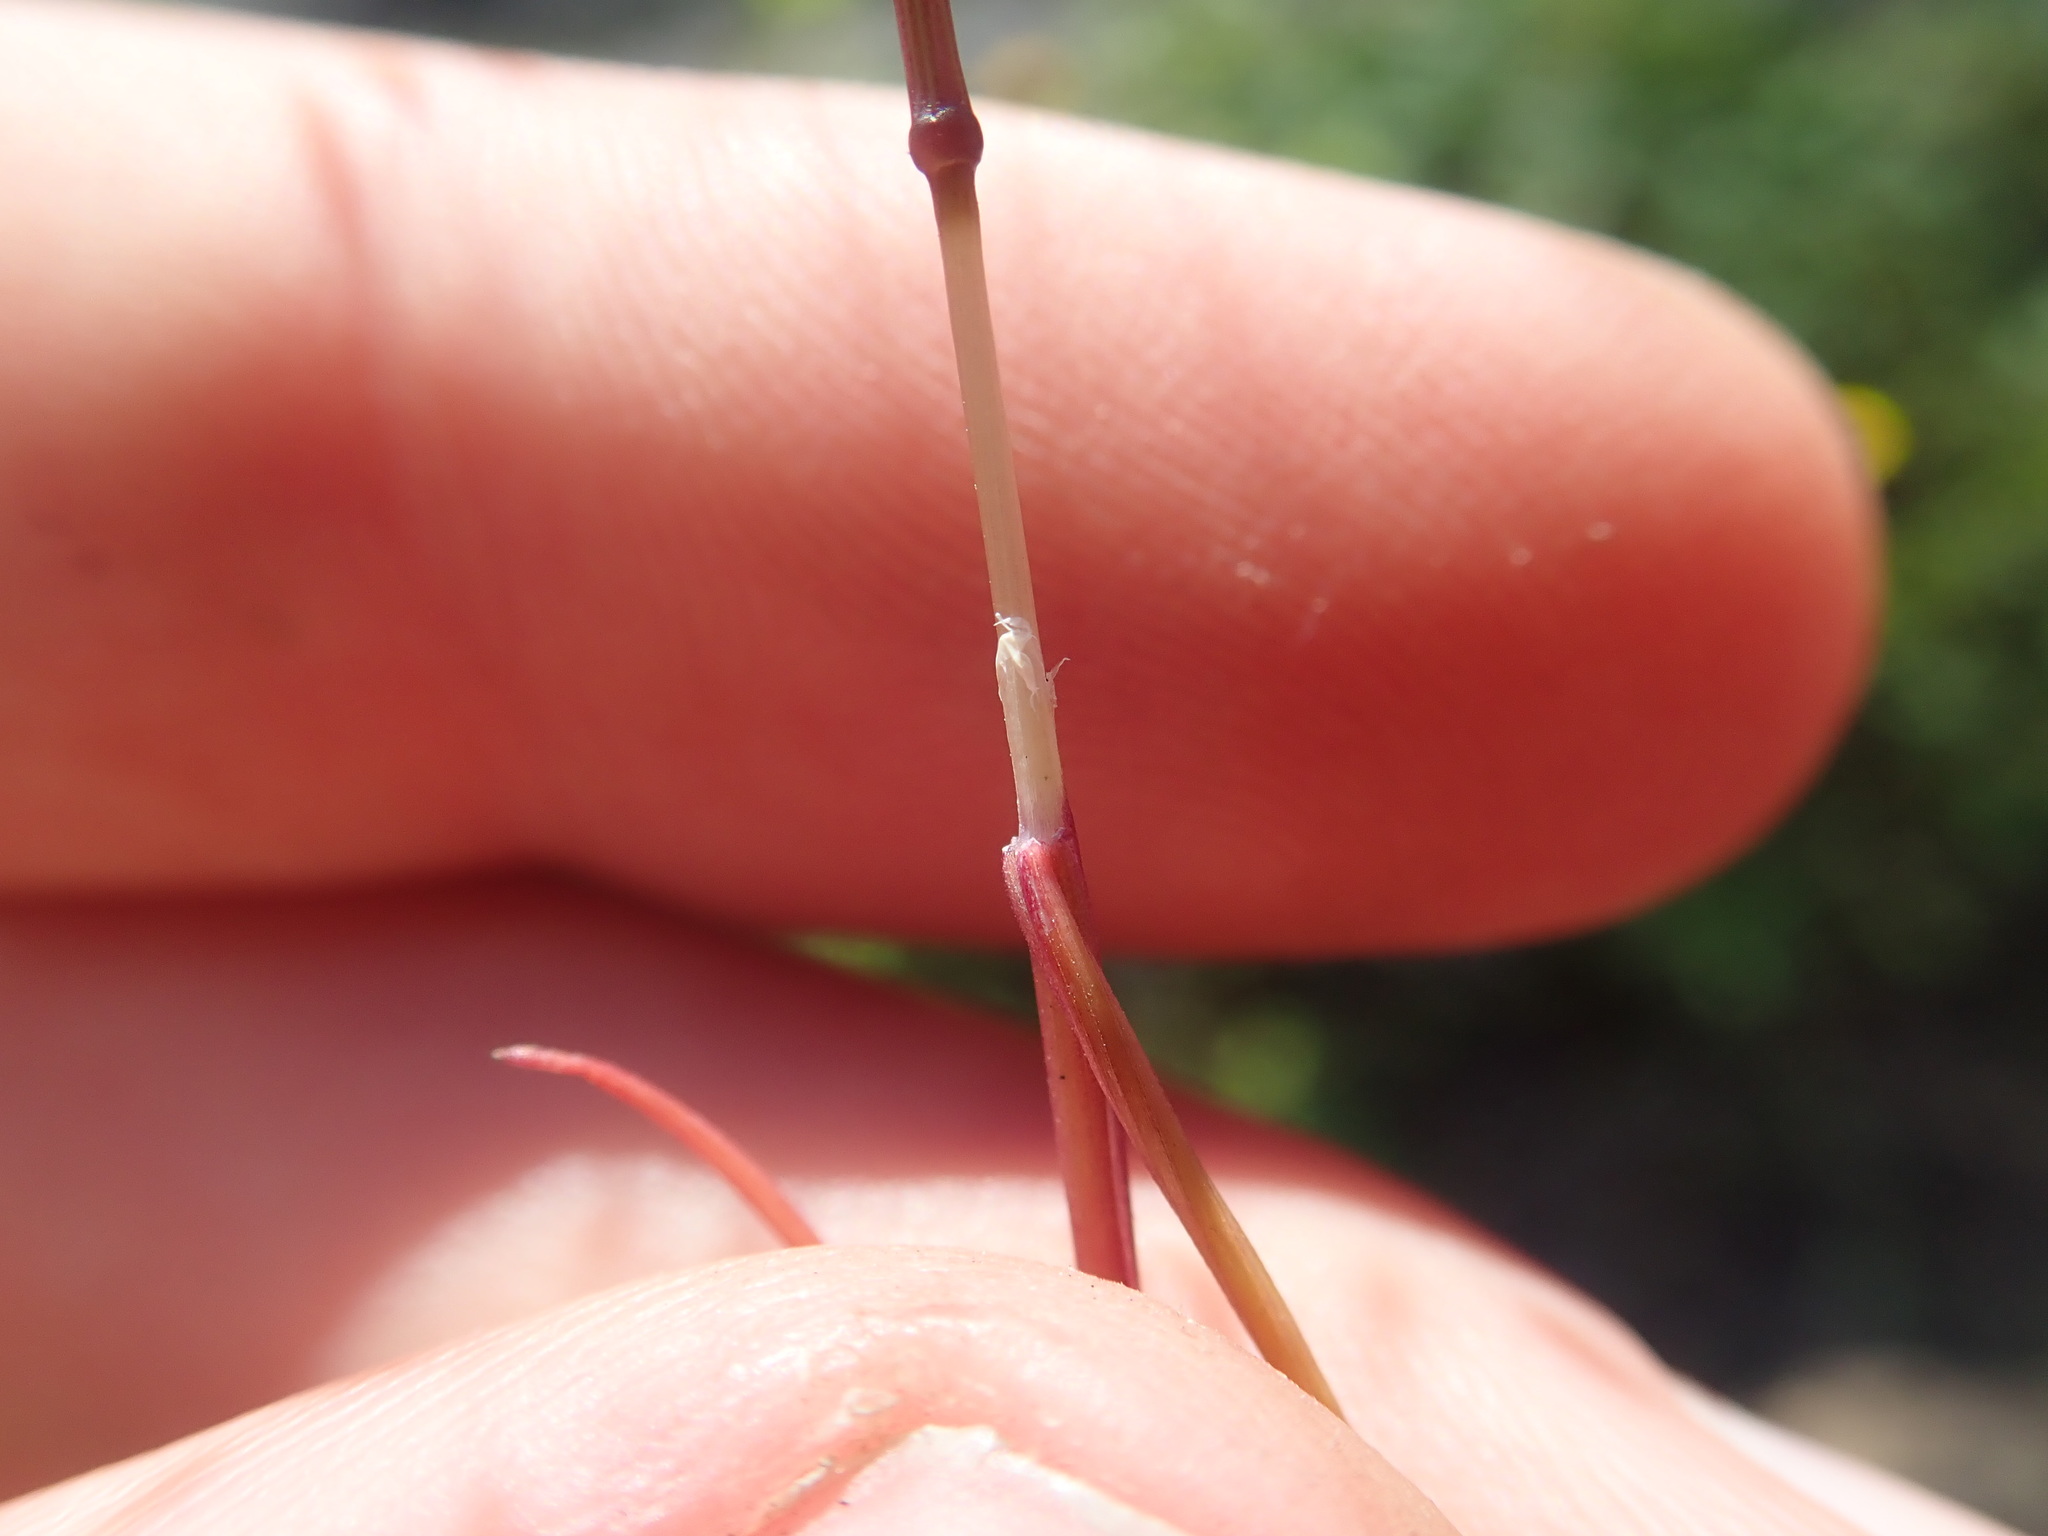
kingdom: Plantae
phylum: Tracheophyta
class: Liliopsida
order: Poales
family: Poaceae
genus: Aira
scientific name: Aira caryophyllea
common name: Silver hairgrass
